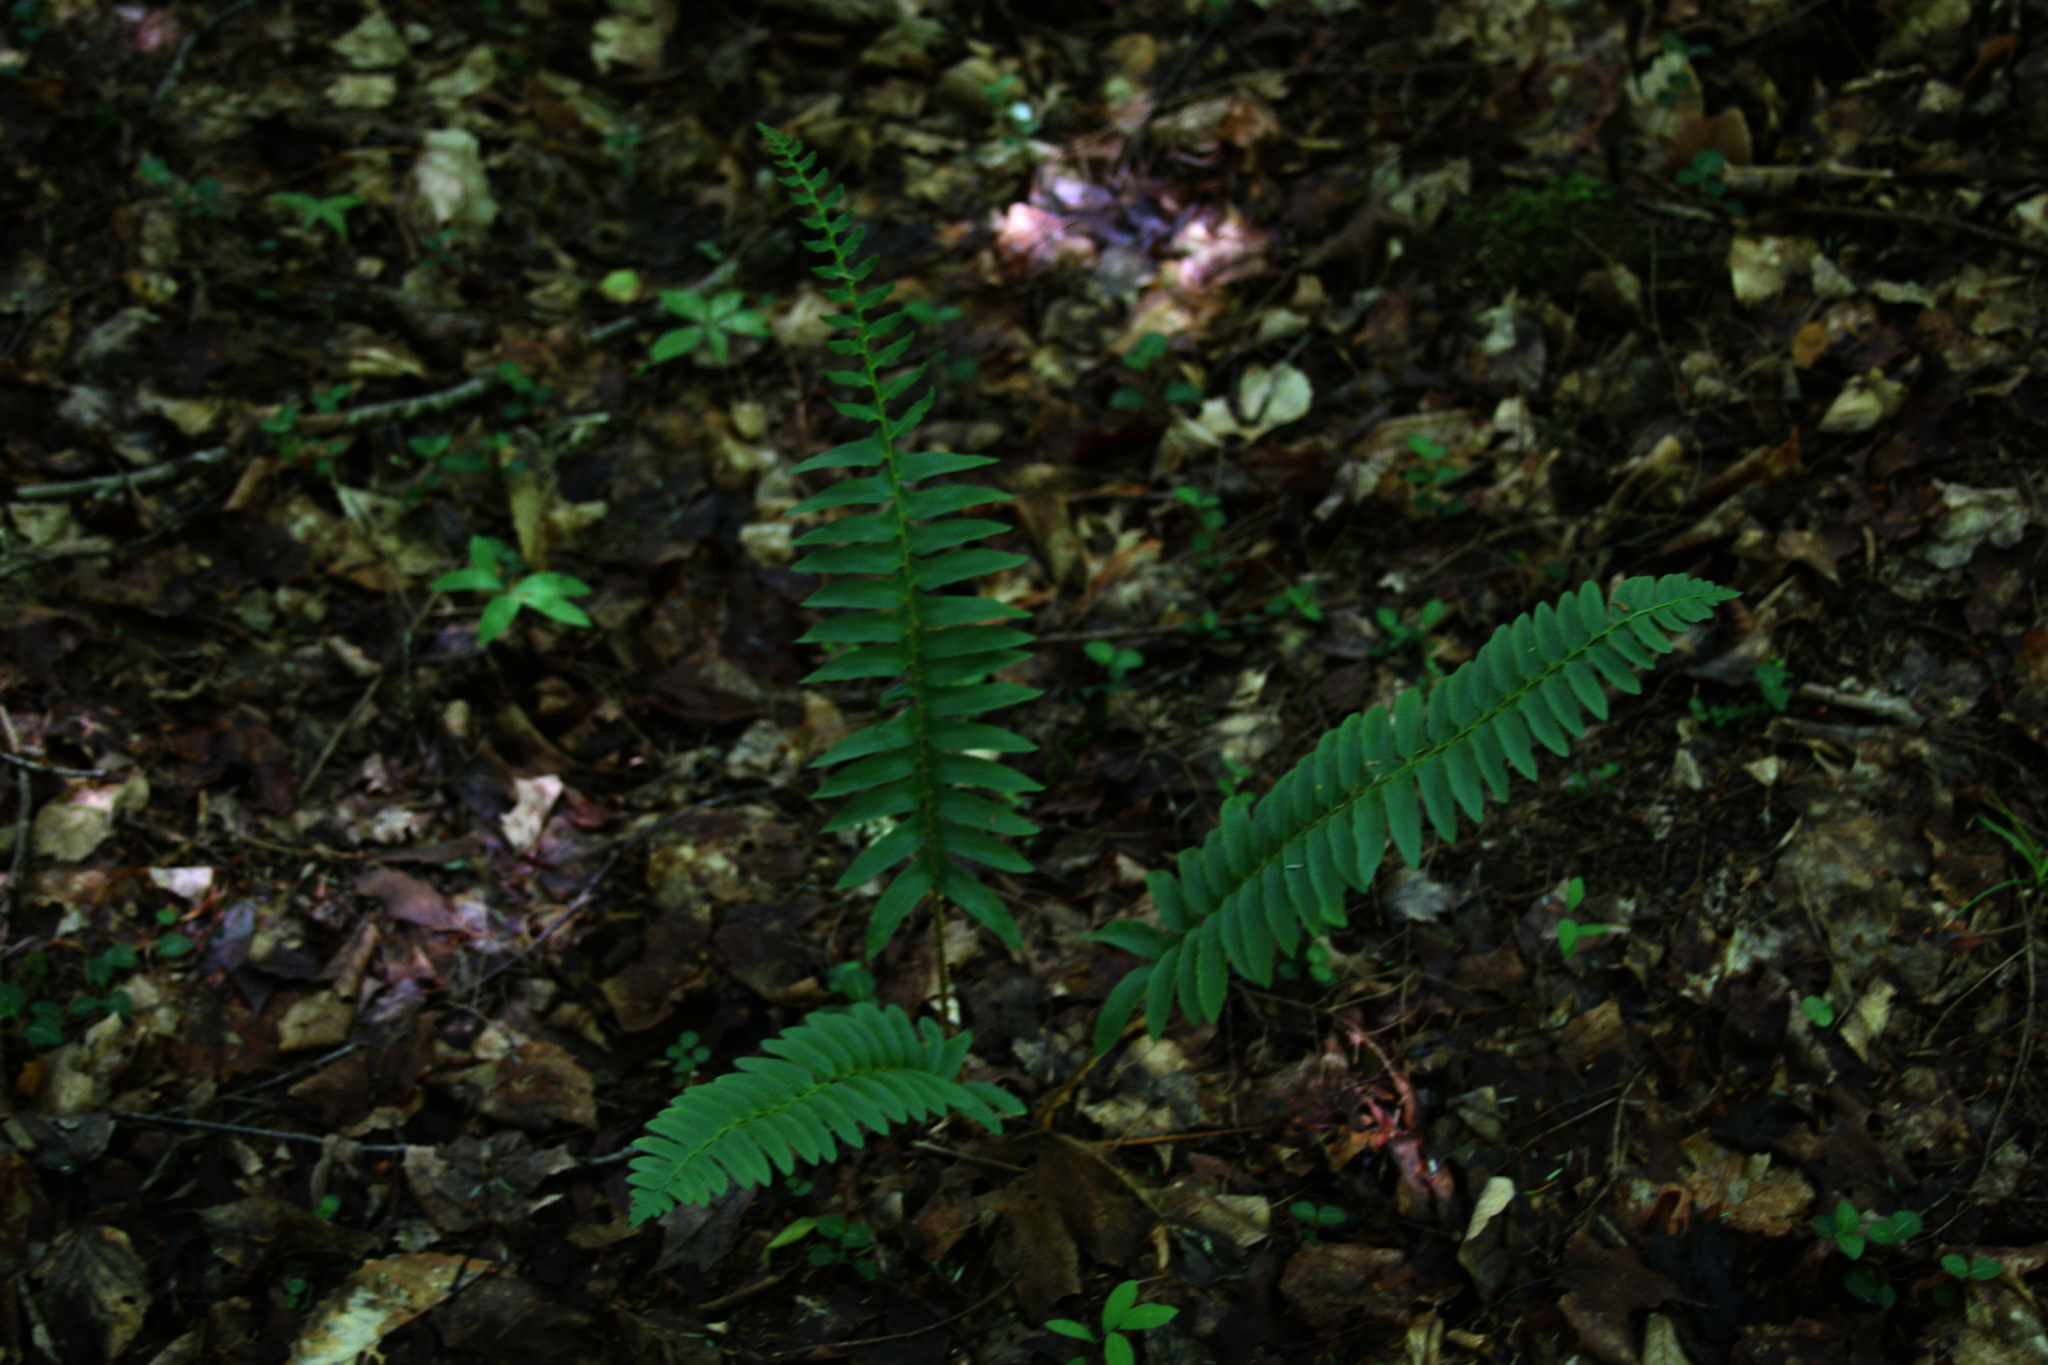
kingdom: Plantae
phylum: Tracheophyta
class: Polypodiopsida
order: Polypodiales
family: Dryopteridaceae
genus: Polystichum
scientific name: Polystichum acrostichoides
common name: Christmas fern
